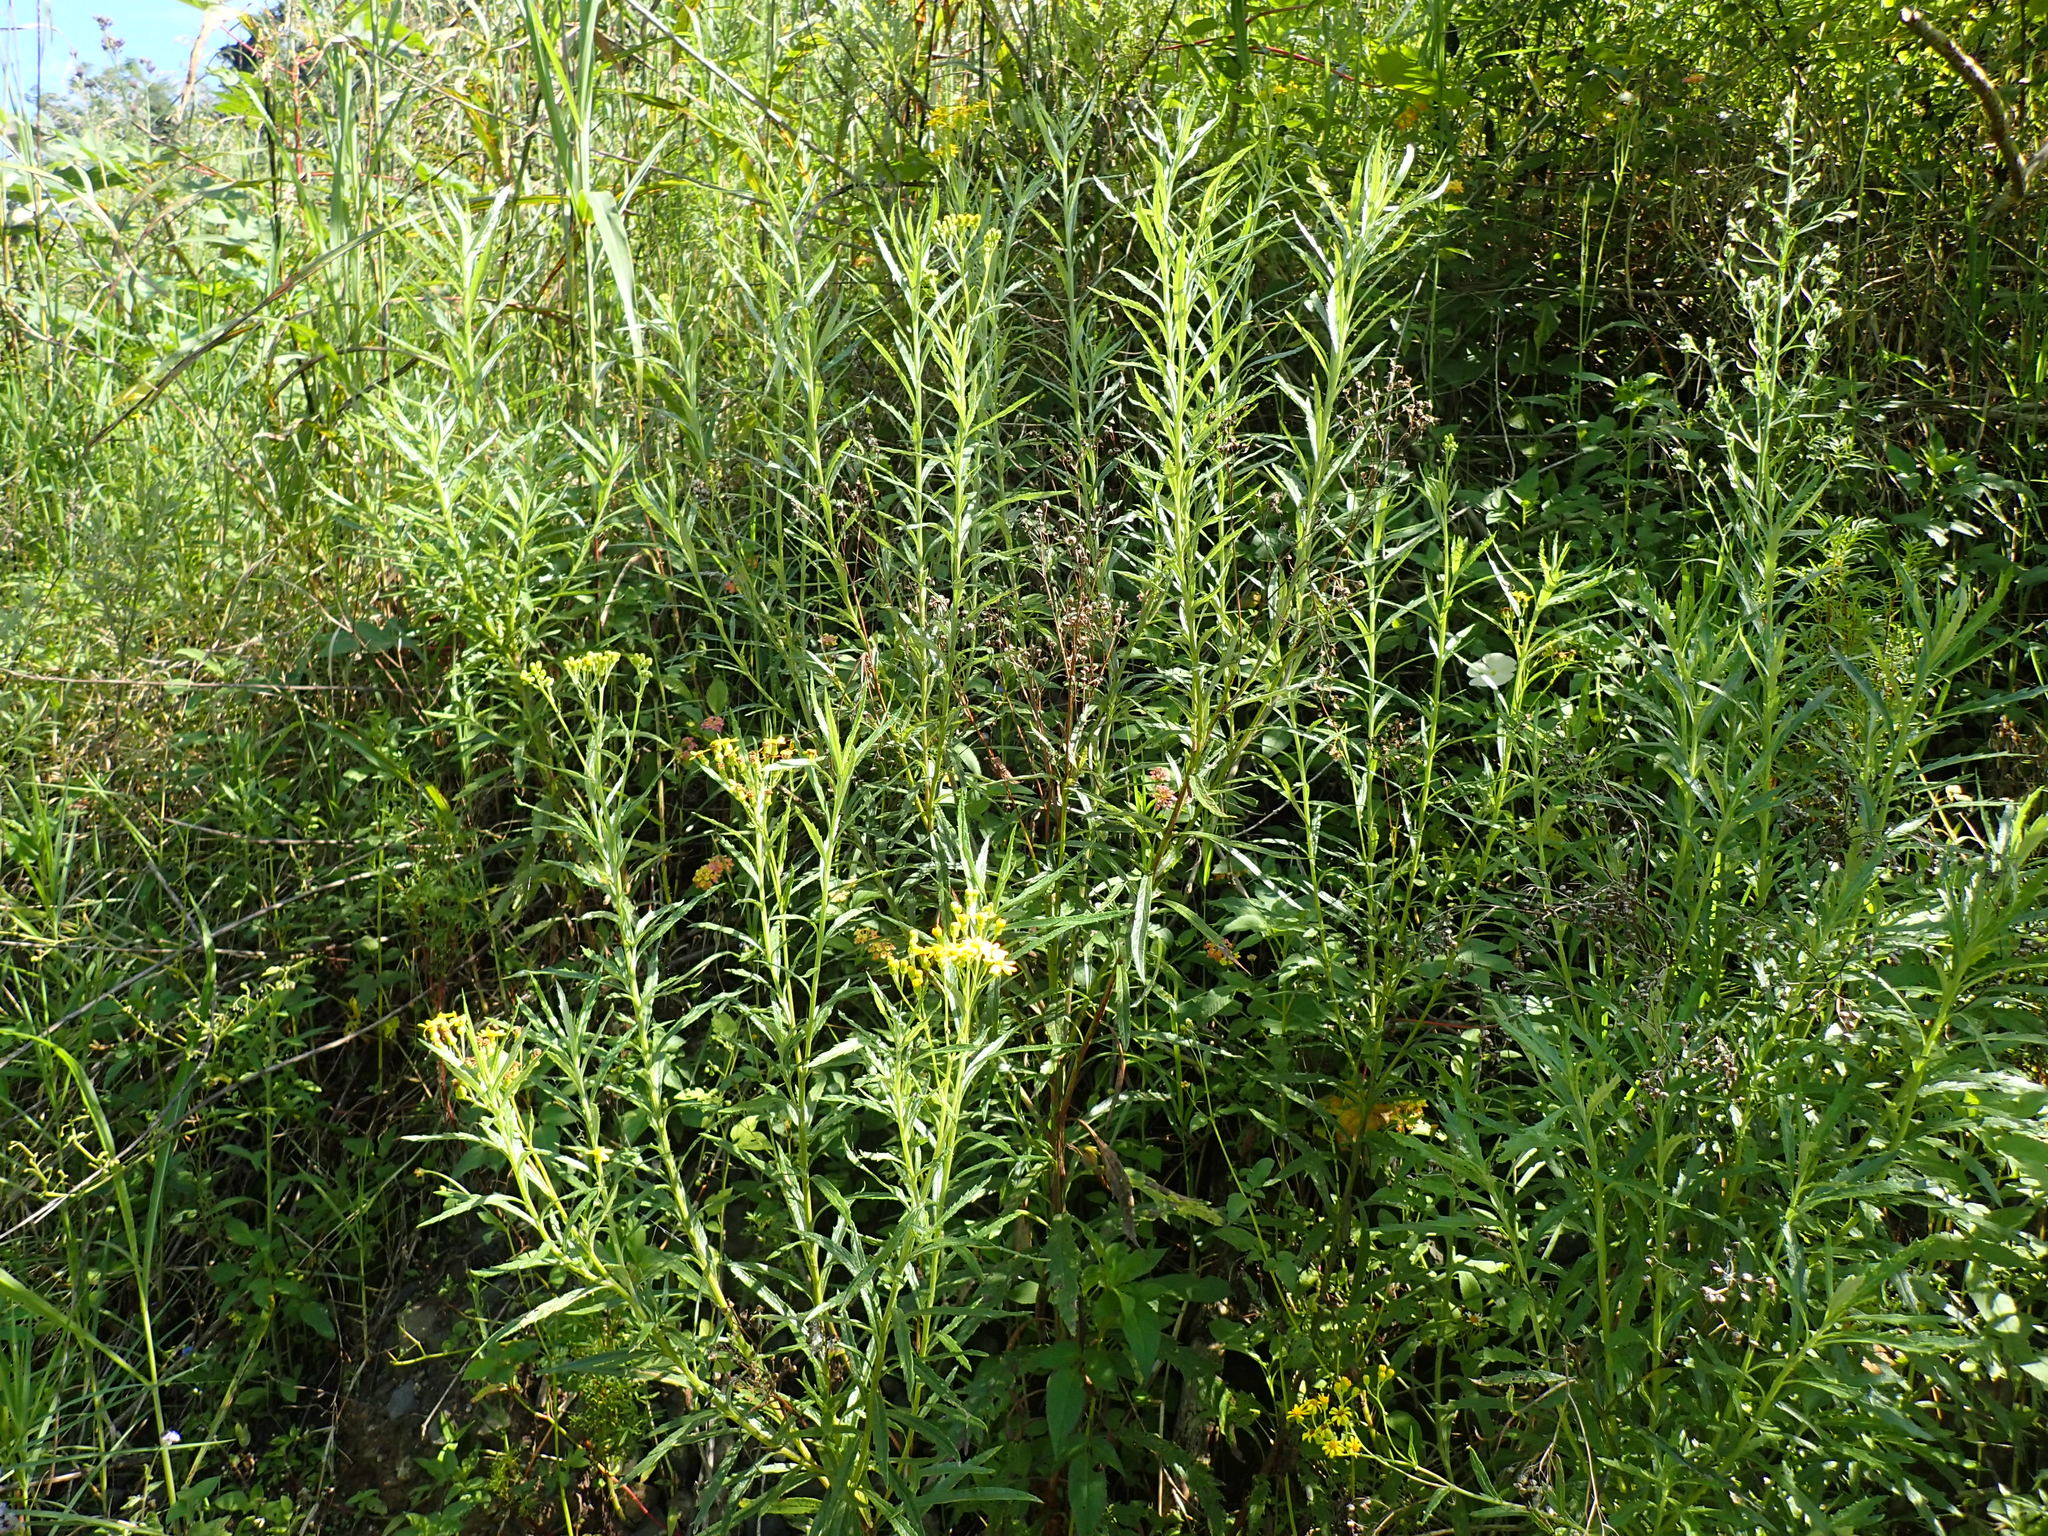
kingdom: Plantae
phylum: Tracheophyta
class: Magnoliopsida
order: Asterales
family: Asteraceae
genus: Senecio
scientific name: Senecio polyanthemoides
